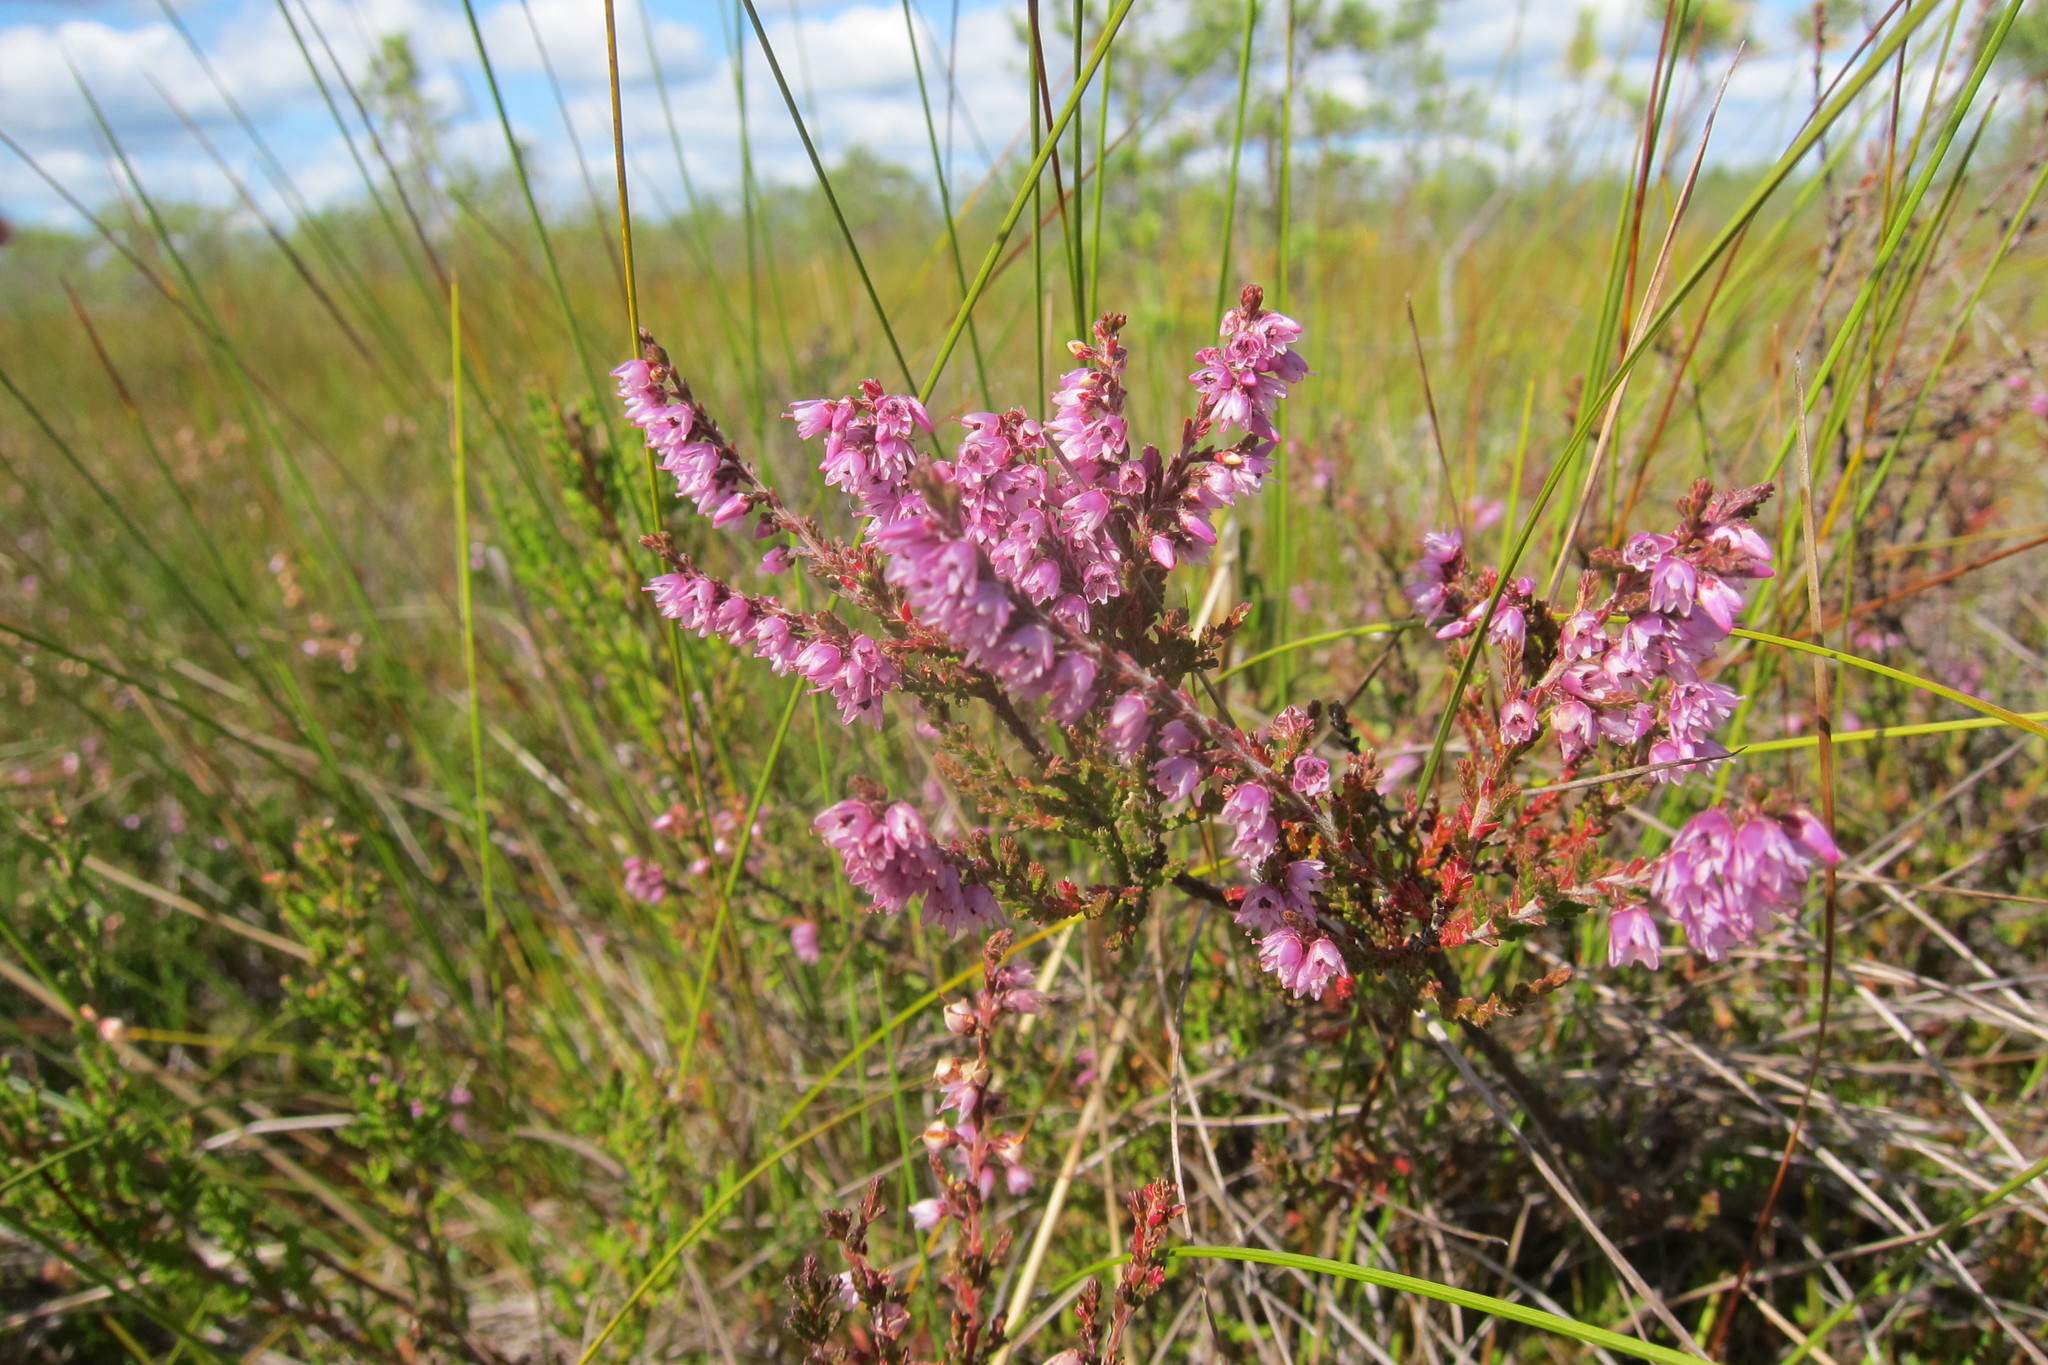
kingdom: Plantae
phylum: Tracheophyta
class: Magnoliopsida
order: Ericales
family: Ericaceae
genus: Calluna
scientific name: Calluna vulgaris
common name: Heather
